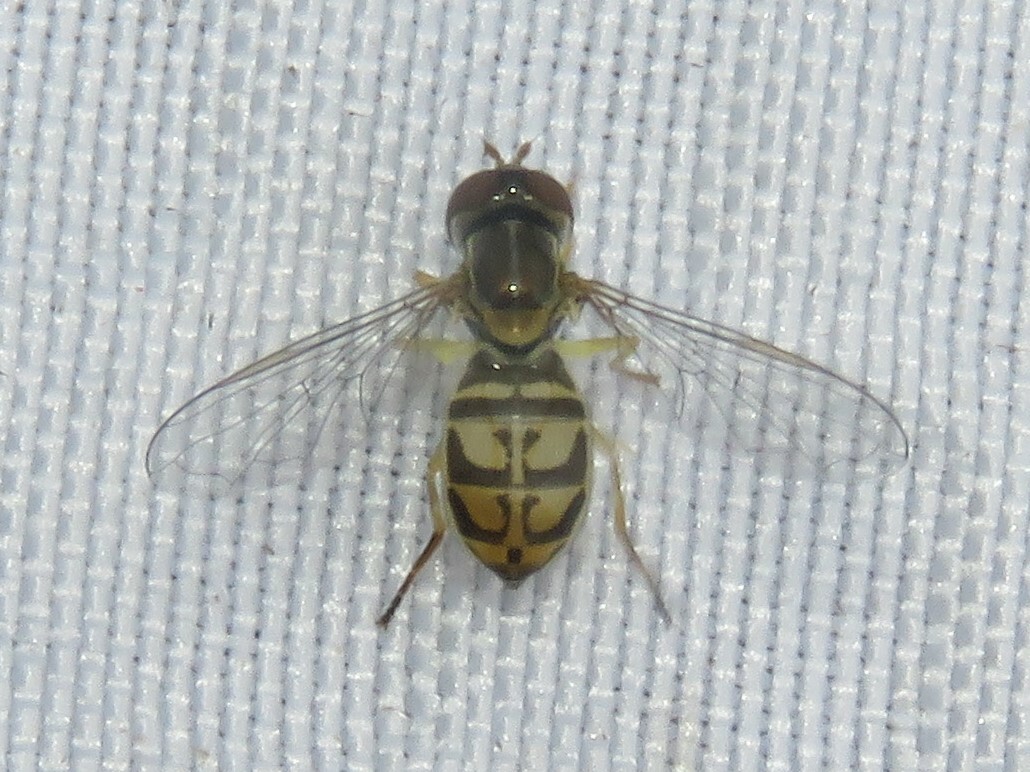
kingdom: Animalia
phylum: Arthropoda
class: Insecta
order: Diptera
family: Syrphidae
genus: Toxomerus
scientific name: Toxomerus marginatus
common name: Syrphid fly
